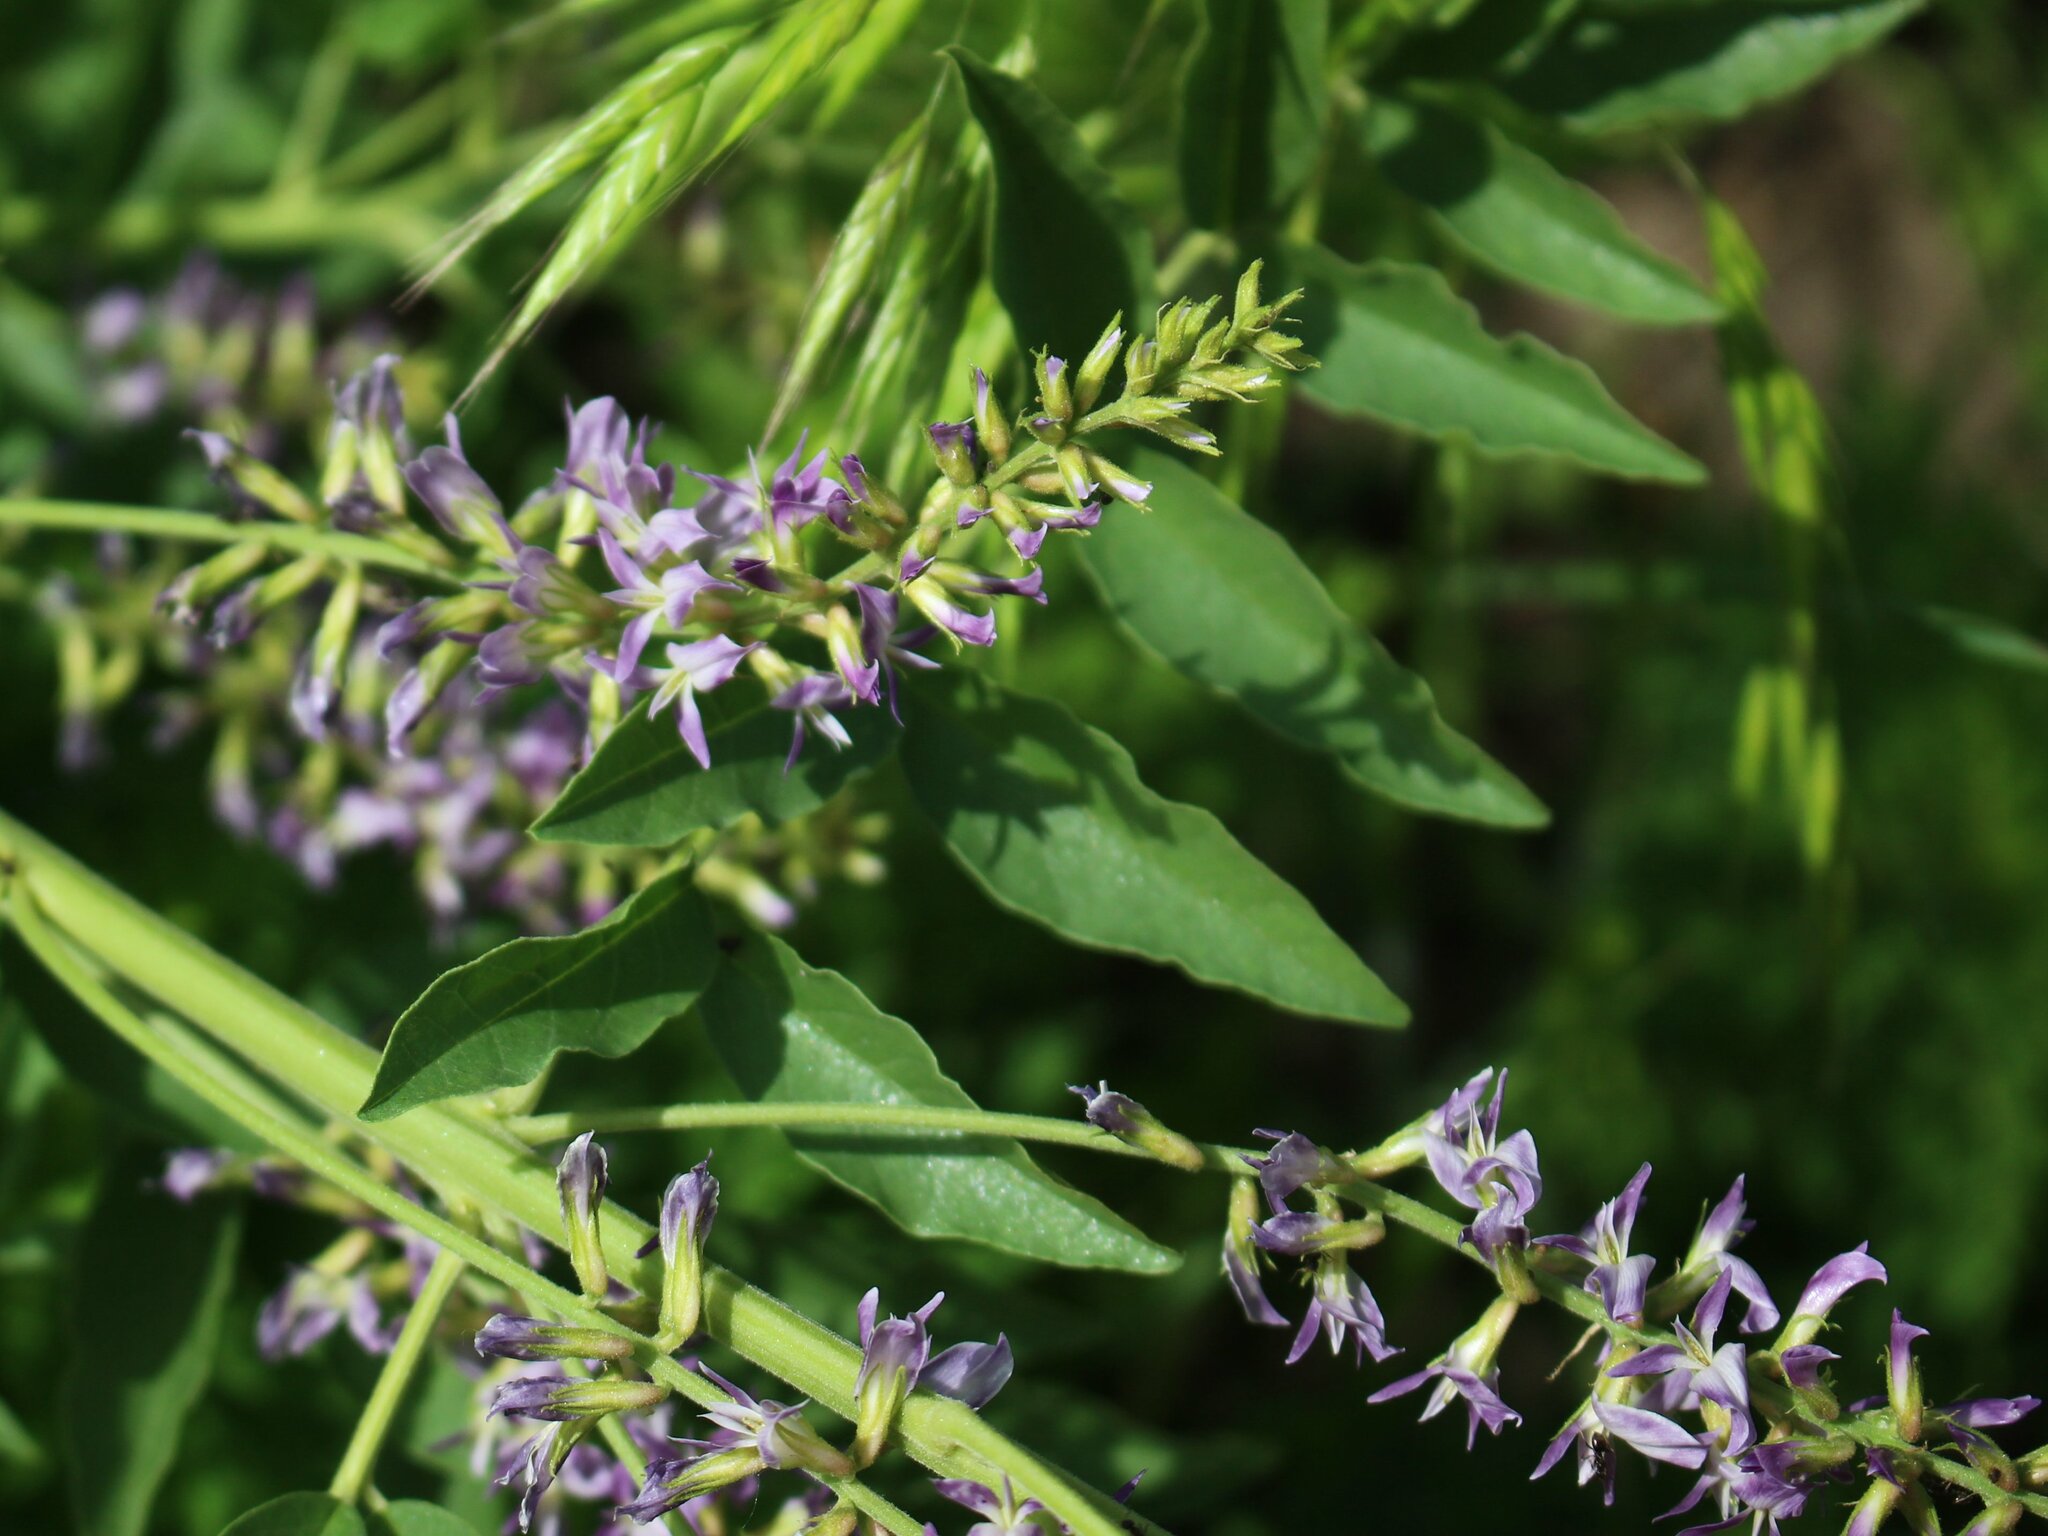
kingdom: Plantae
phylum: Tracheophyta
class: Magnoliopsida
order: Fabales
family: Fabaceae
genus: Glycyrrhiza
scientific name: Glycyrrhiza glabra
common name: Liquorice
